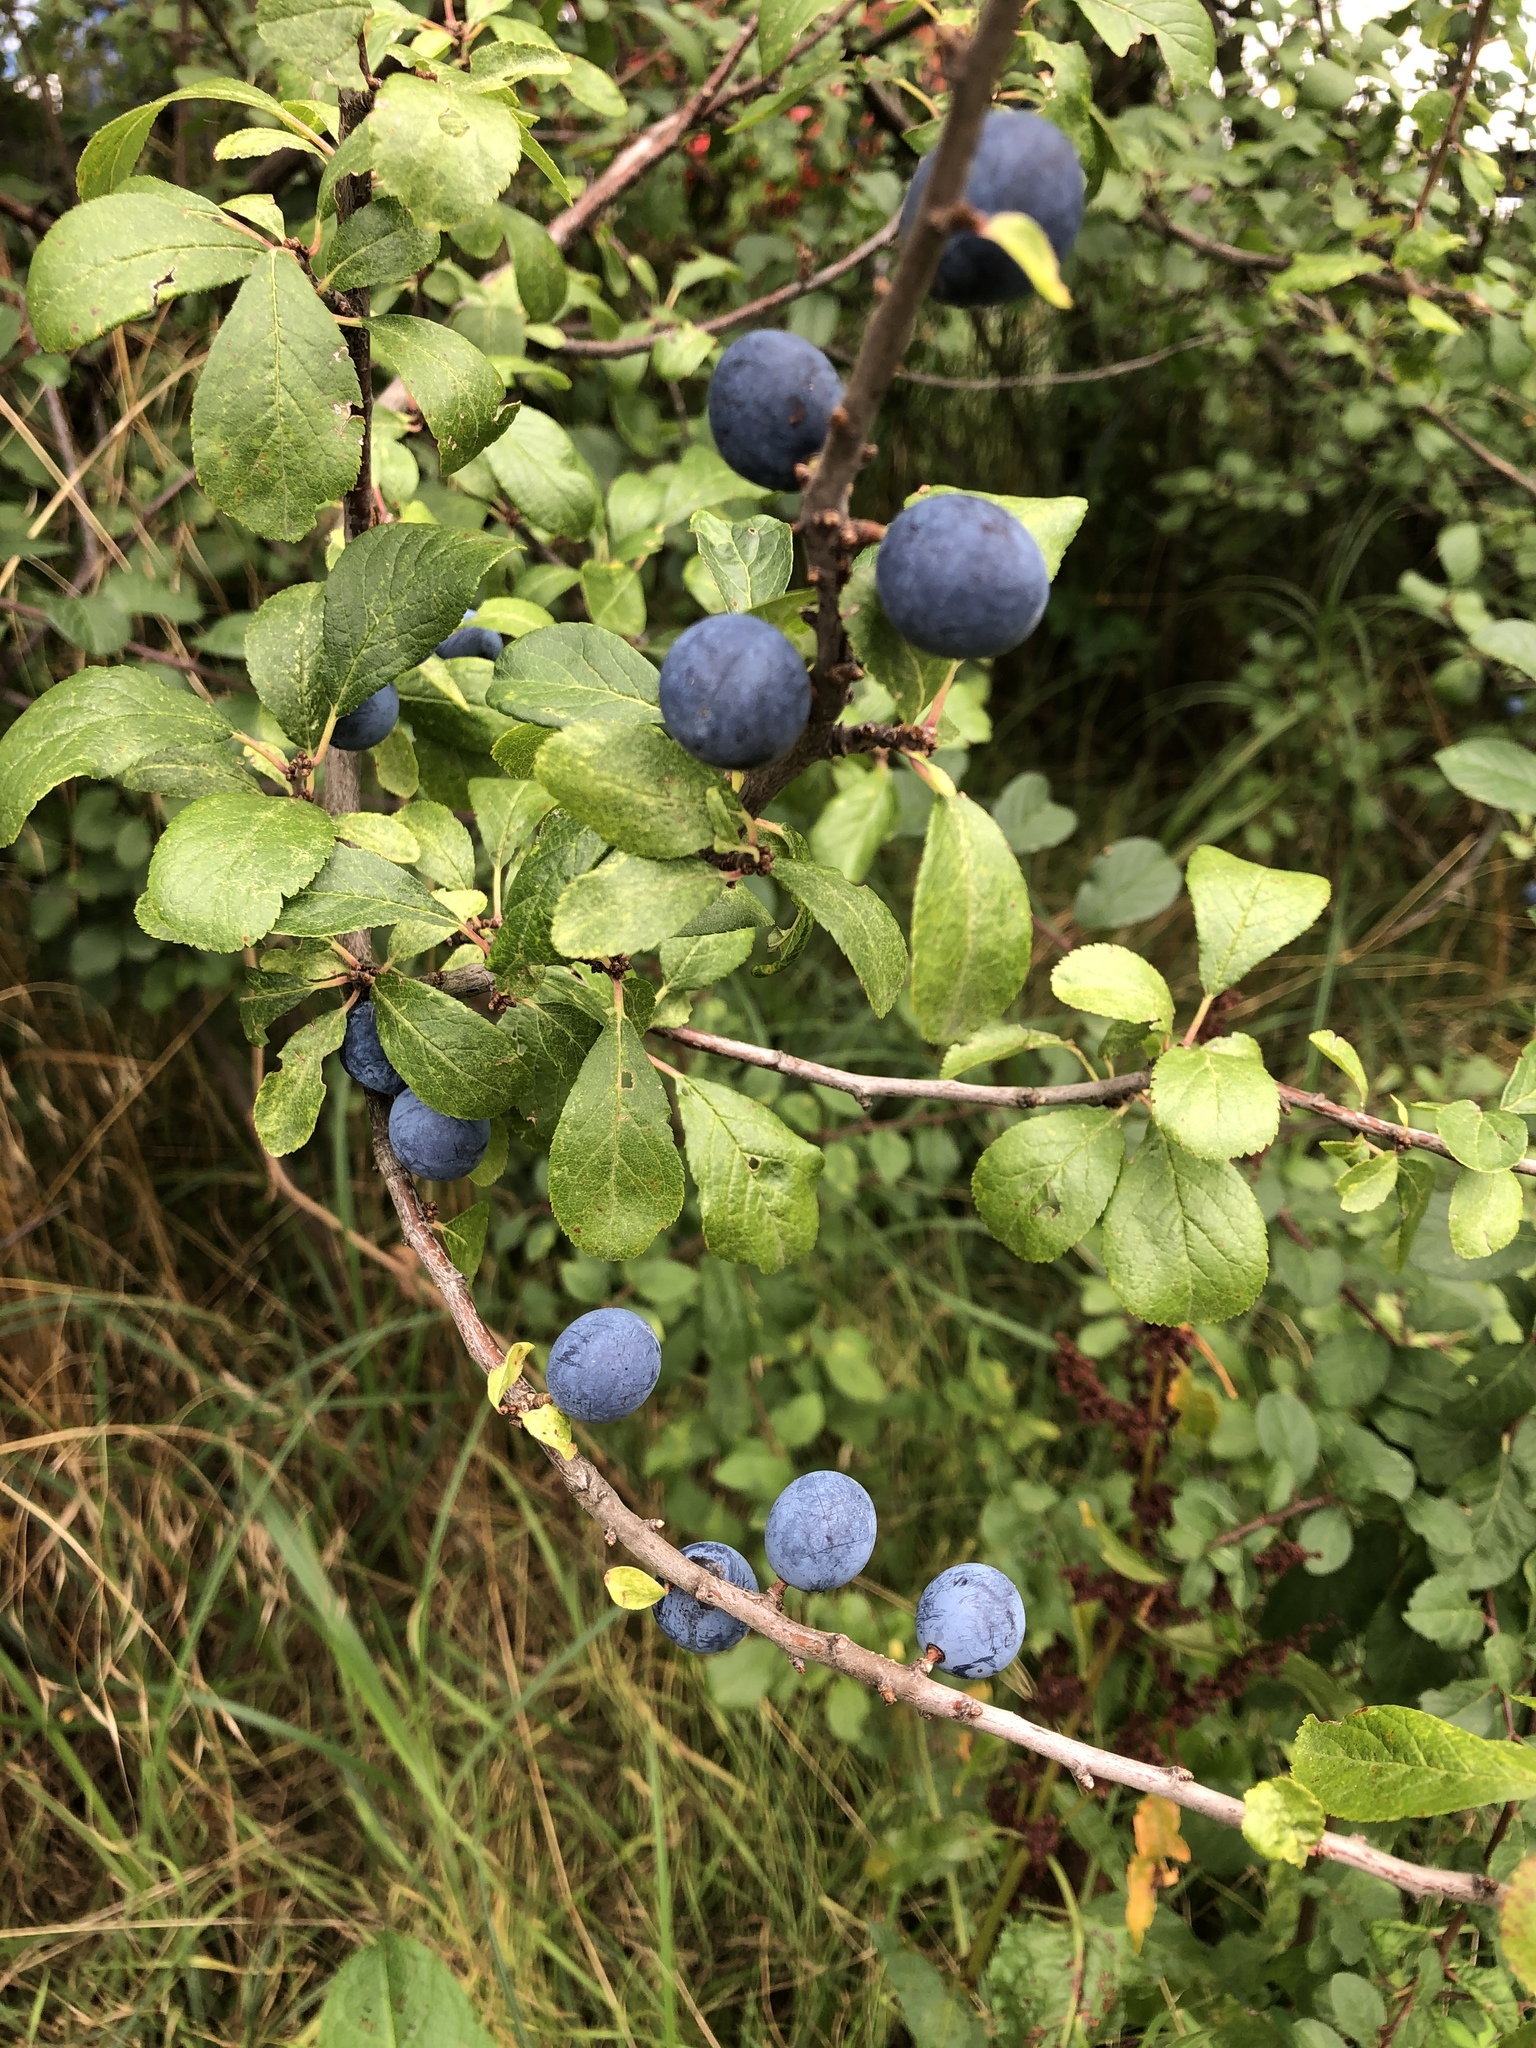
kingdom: Plantae
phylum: Tracheophyta
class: Magnoliopsida
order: Rosales
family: Rosaceae
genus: Prunus
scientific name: Prunus spinosa
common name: Blackthorn
